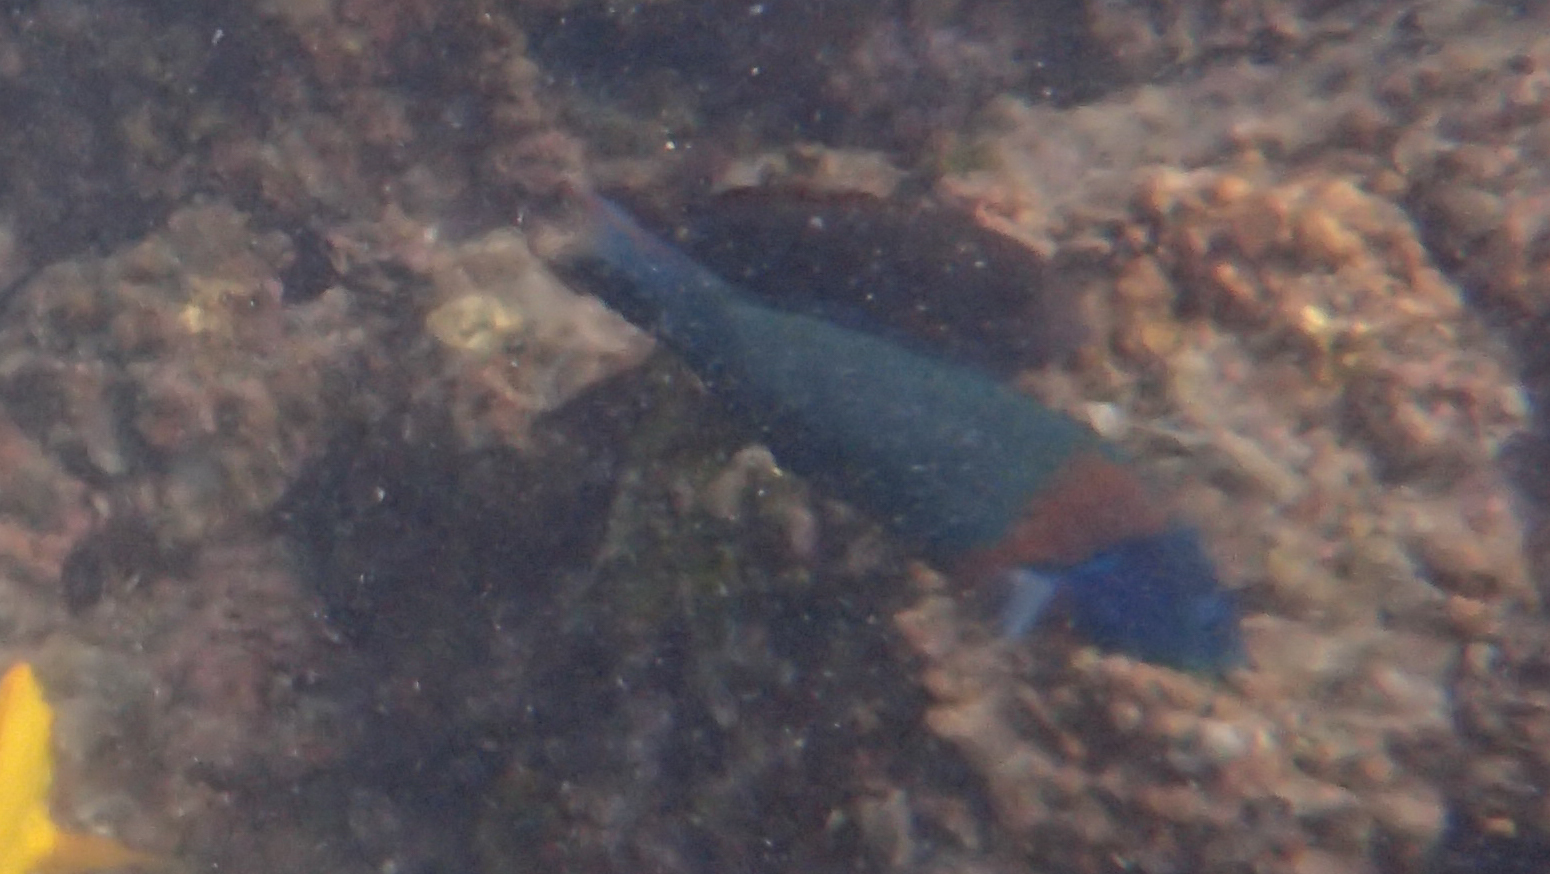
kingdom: Animalia
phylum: Chordata
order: Perciformes
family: Labridae
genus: Thalassoma
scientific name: Thalassoma duperrey
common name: Saddle wrasse
